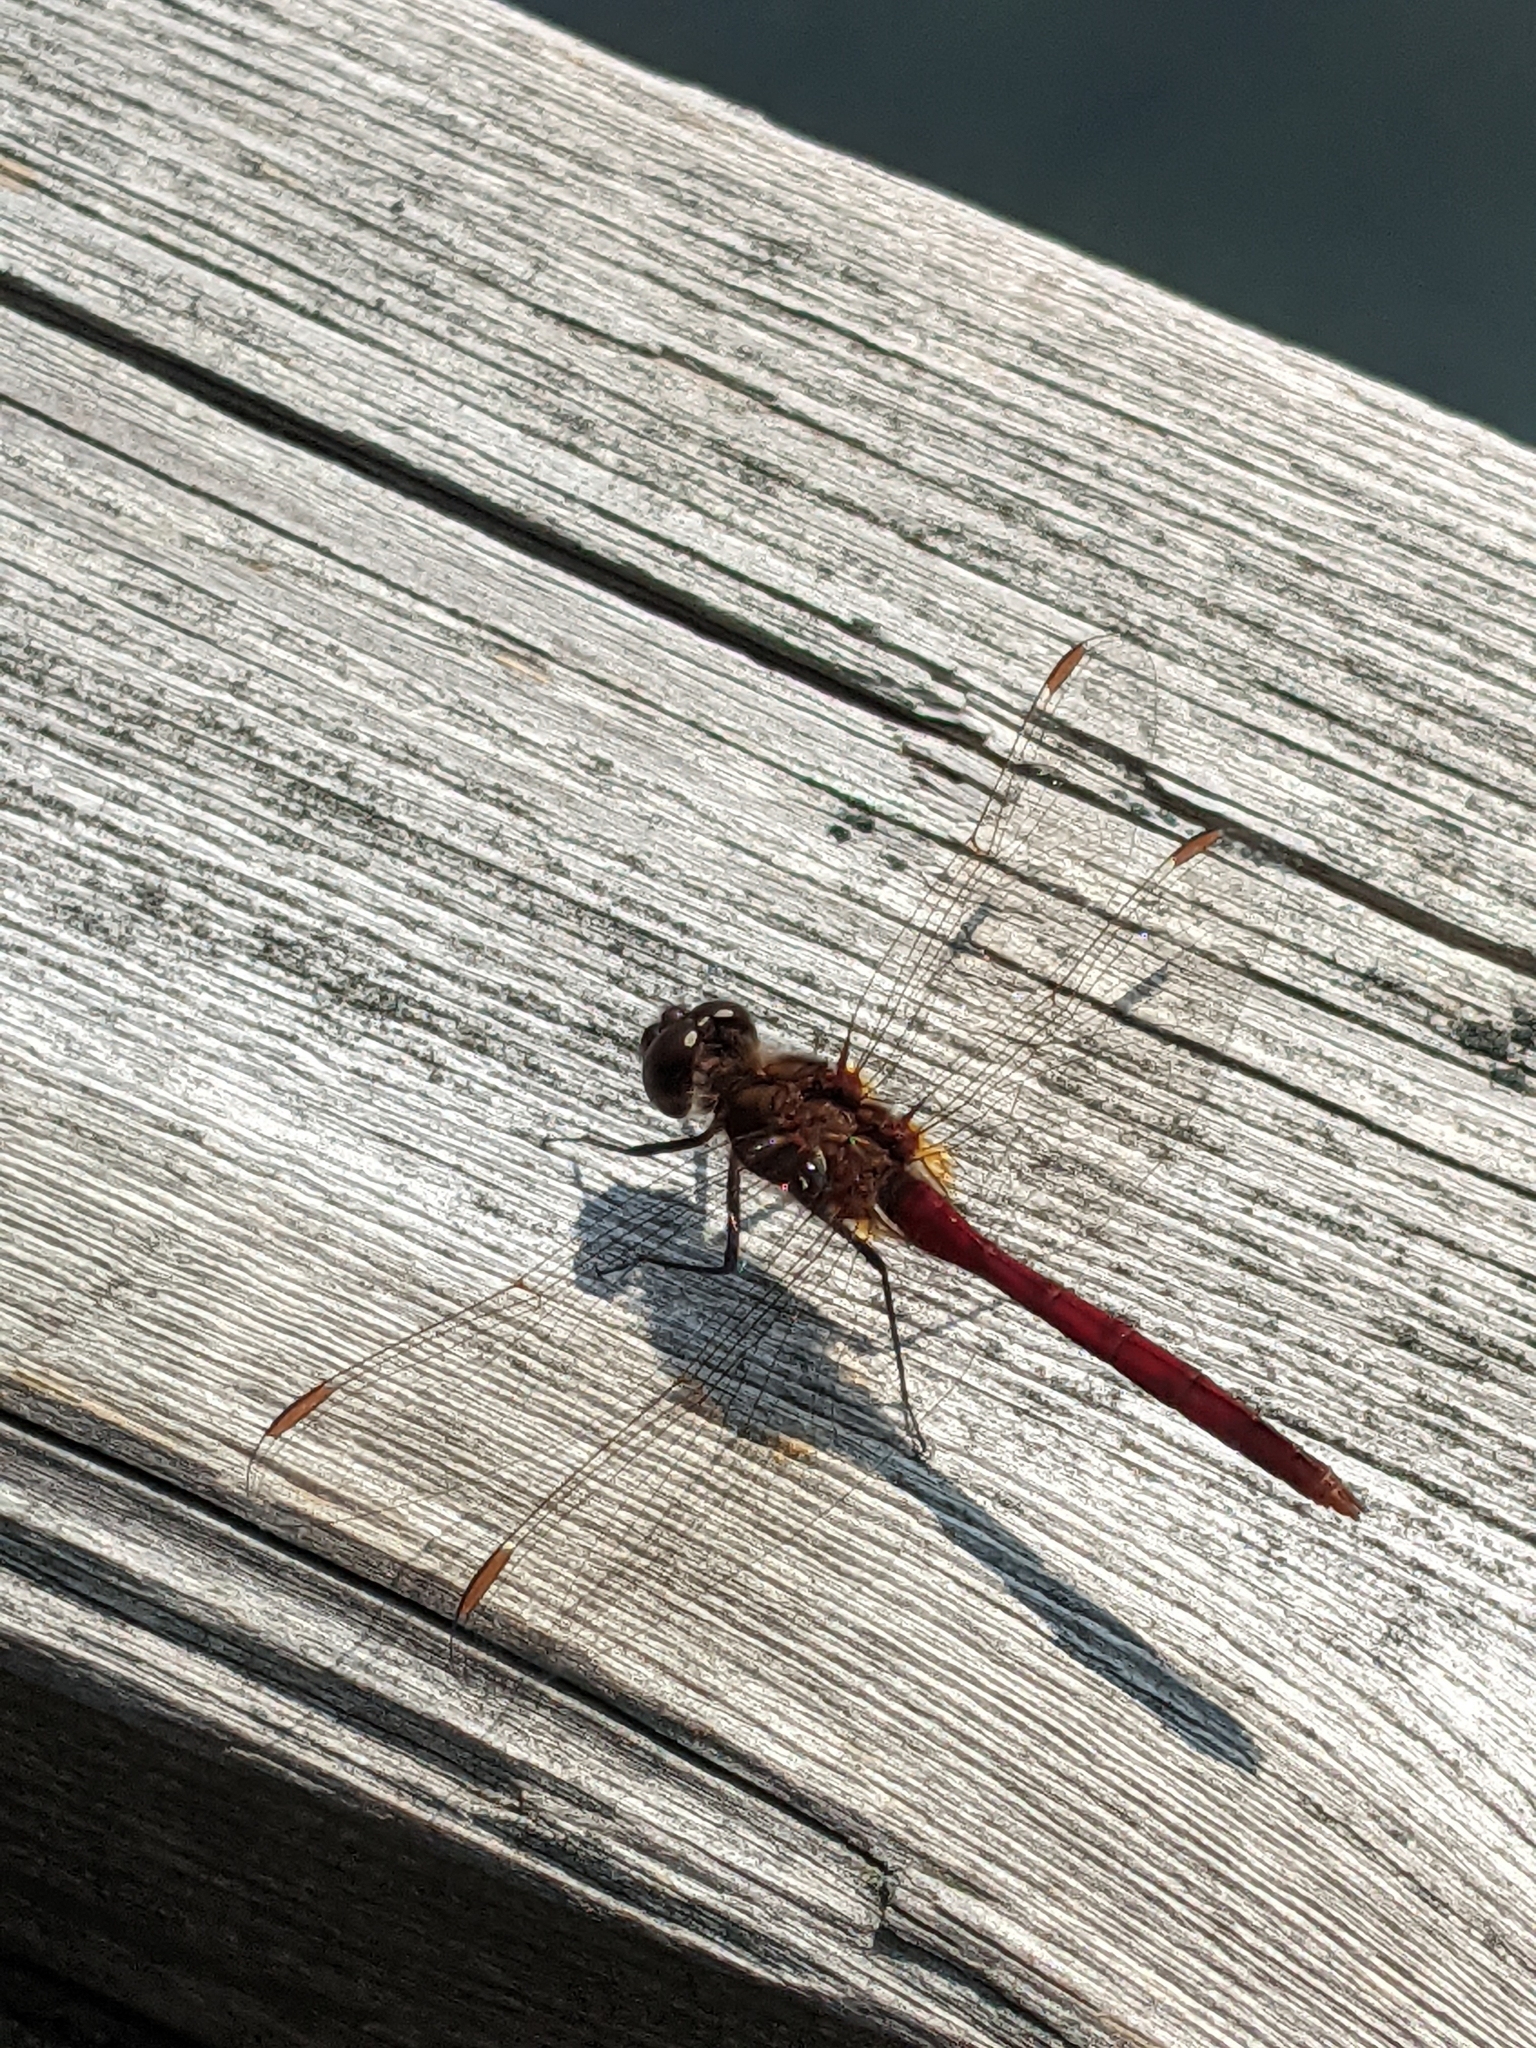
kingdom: Animalia
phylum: Arthropoda
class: Insecta
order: Odonata
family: Libellulidae
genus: Sympetrum
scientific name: Sympetrum costiferum
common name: Saffron-winged meadowhawk
